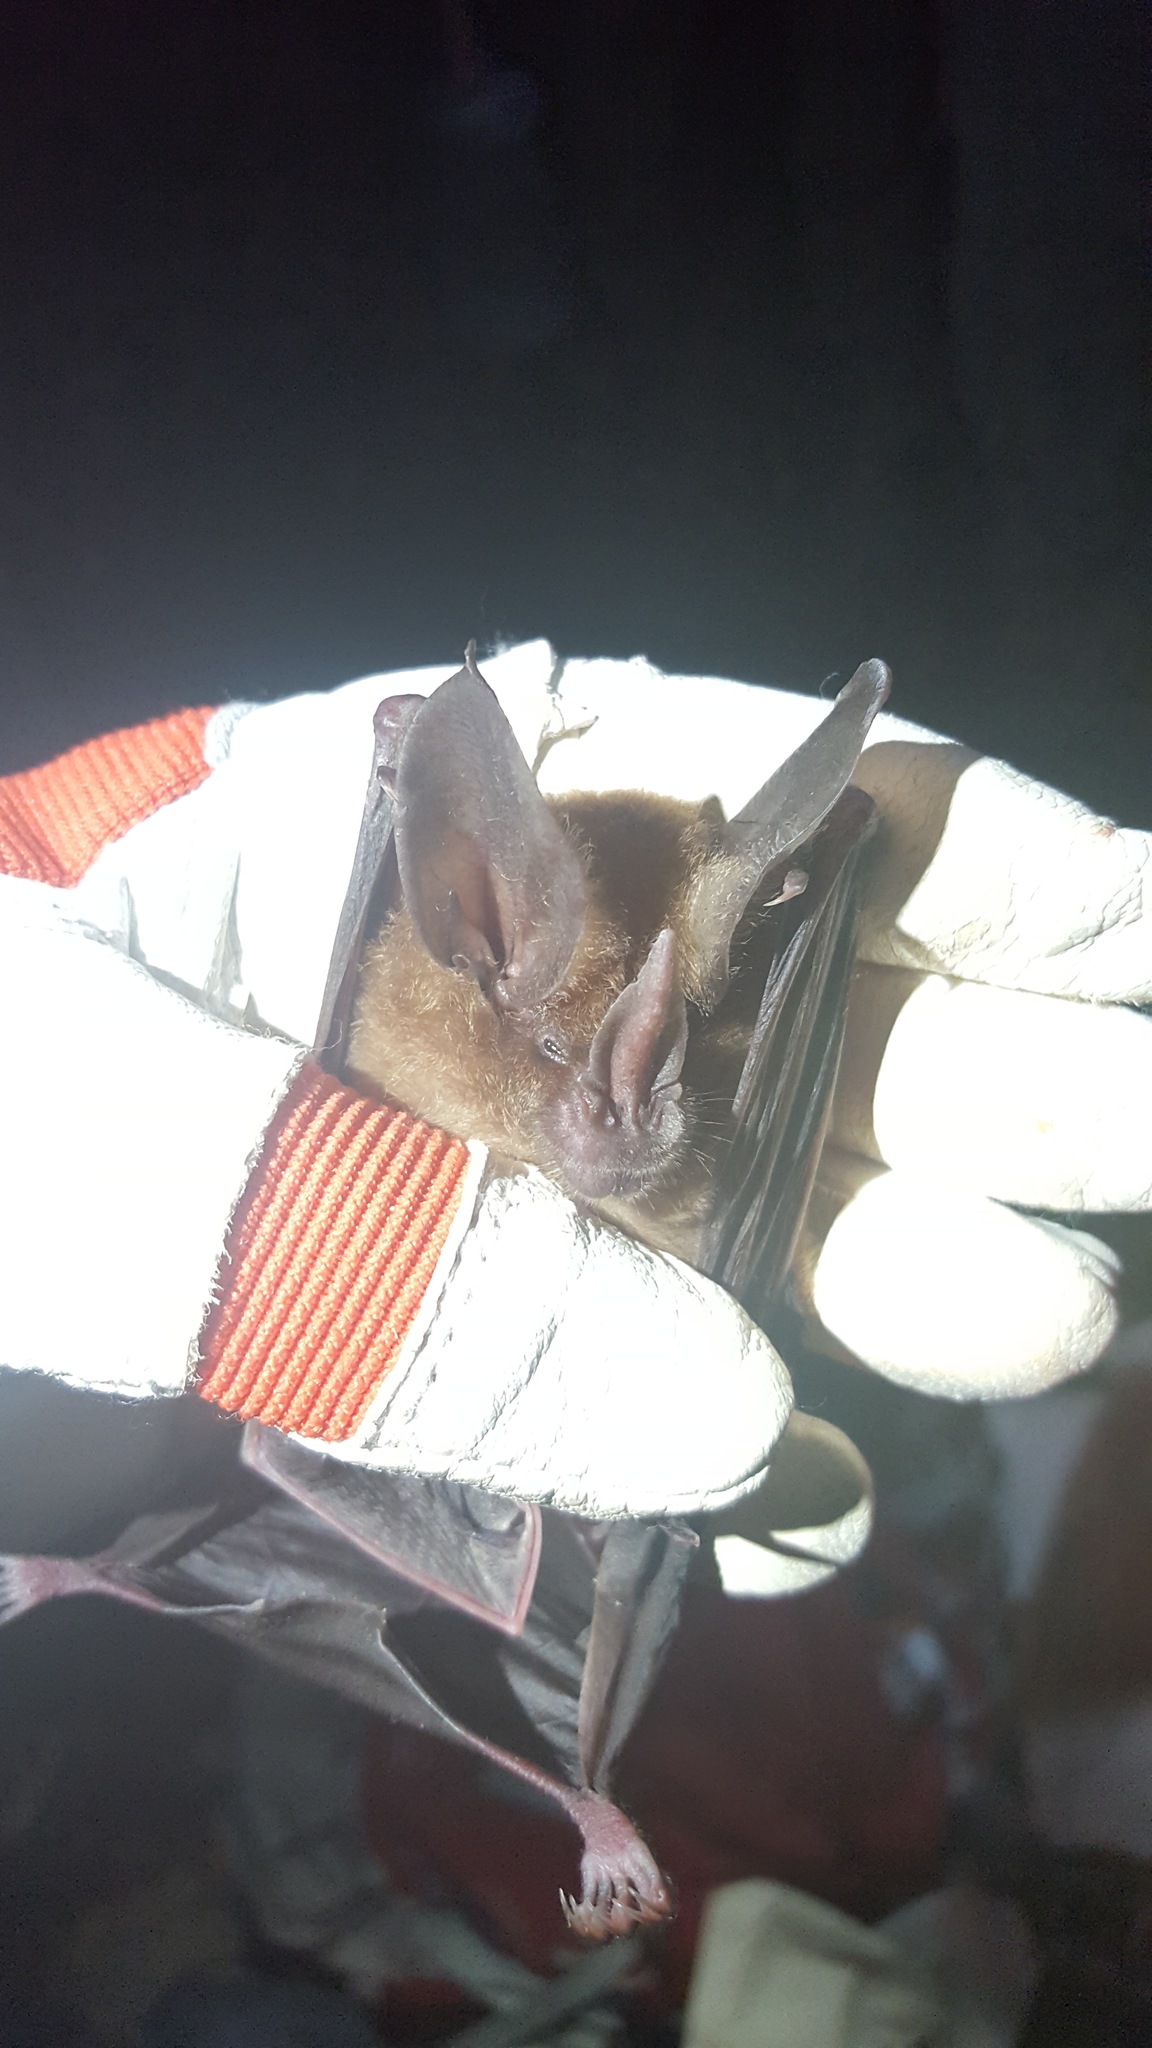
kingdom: Animalia
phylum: Chordata
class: Mammalia
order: Chiroptera
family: Phyllostomidae
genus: Mimon
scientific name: Mimon cozumelae
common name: Cozumelan golden bat
